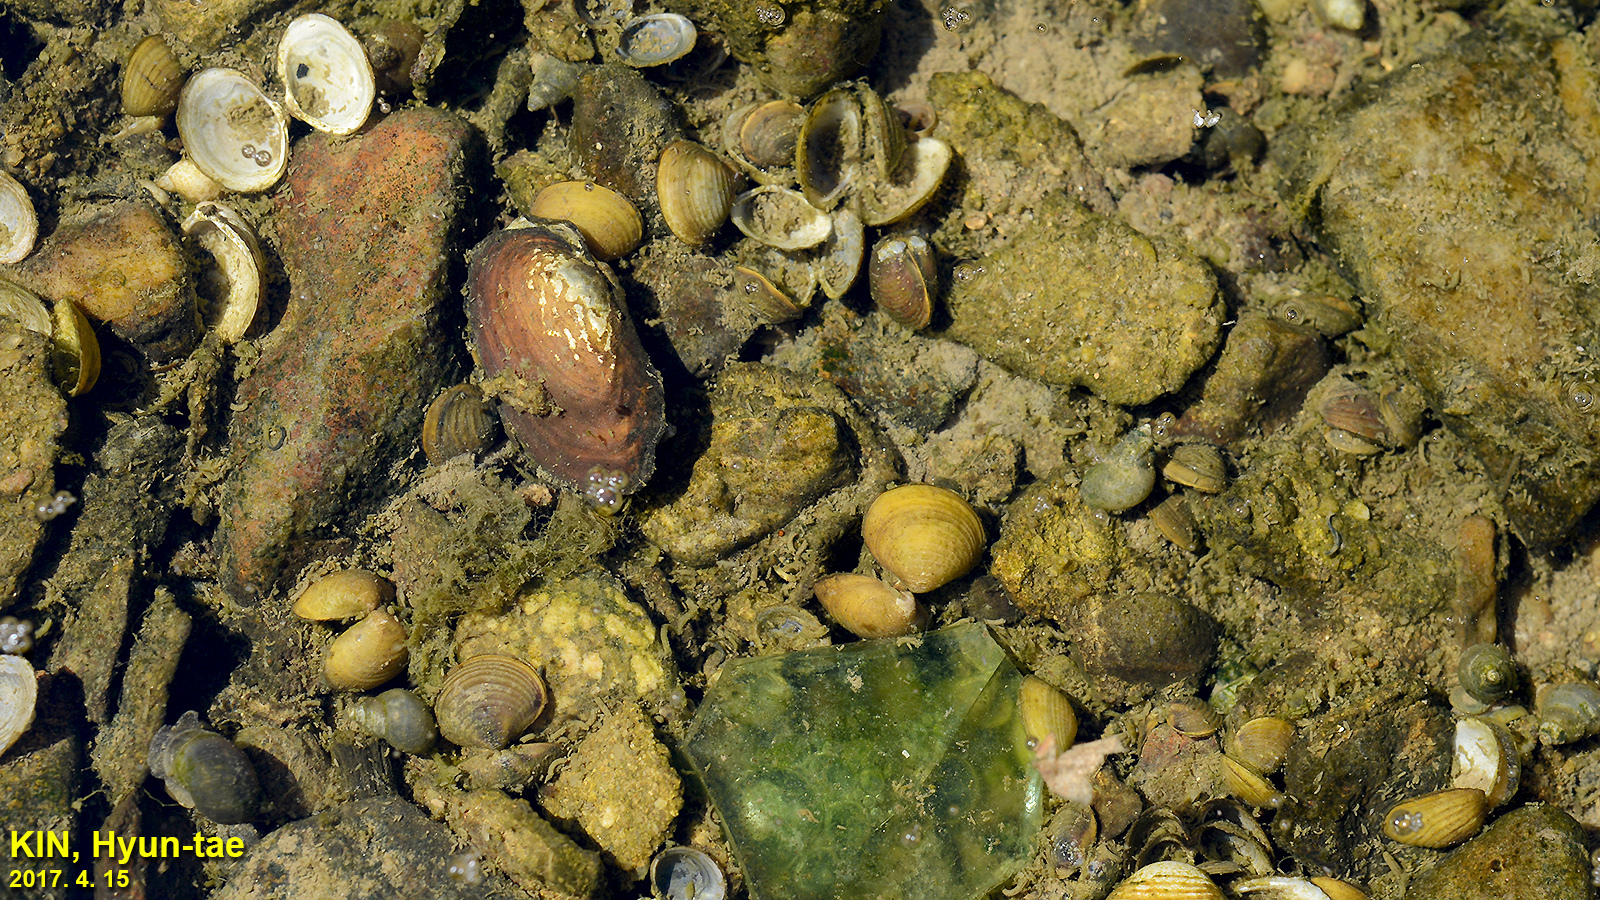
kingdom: Animalia
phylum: Mollusca
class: Bivalvia
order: Unionida
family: Unionidae
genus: Nodularia
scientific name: Nodularia douglasiae
